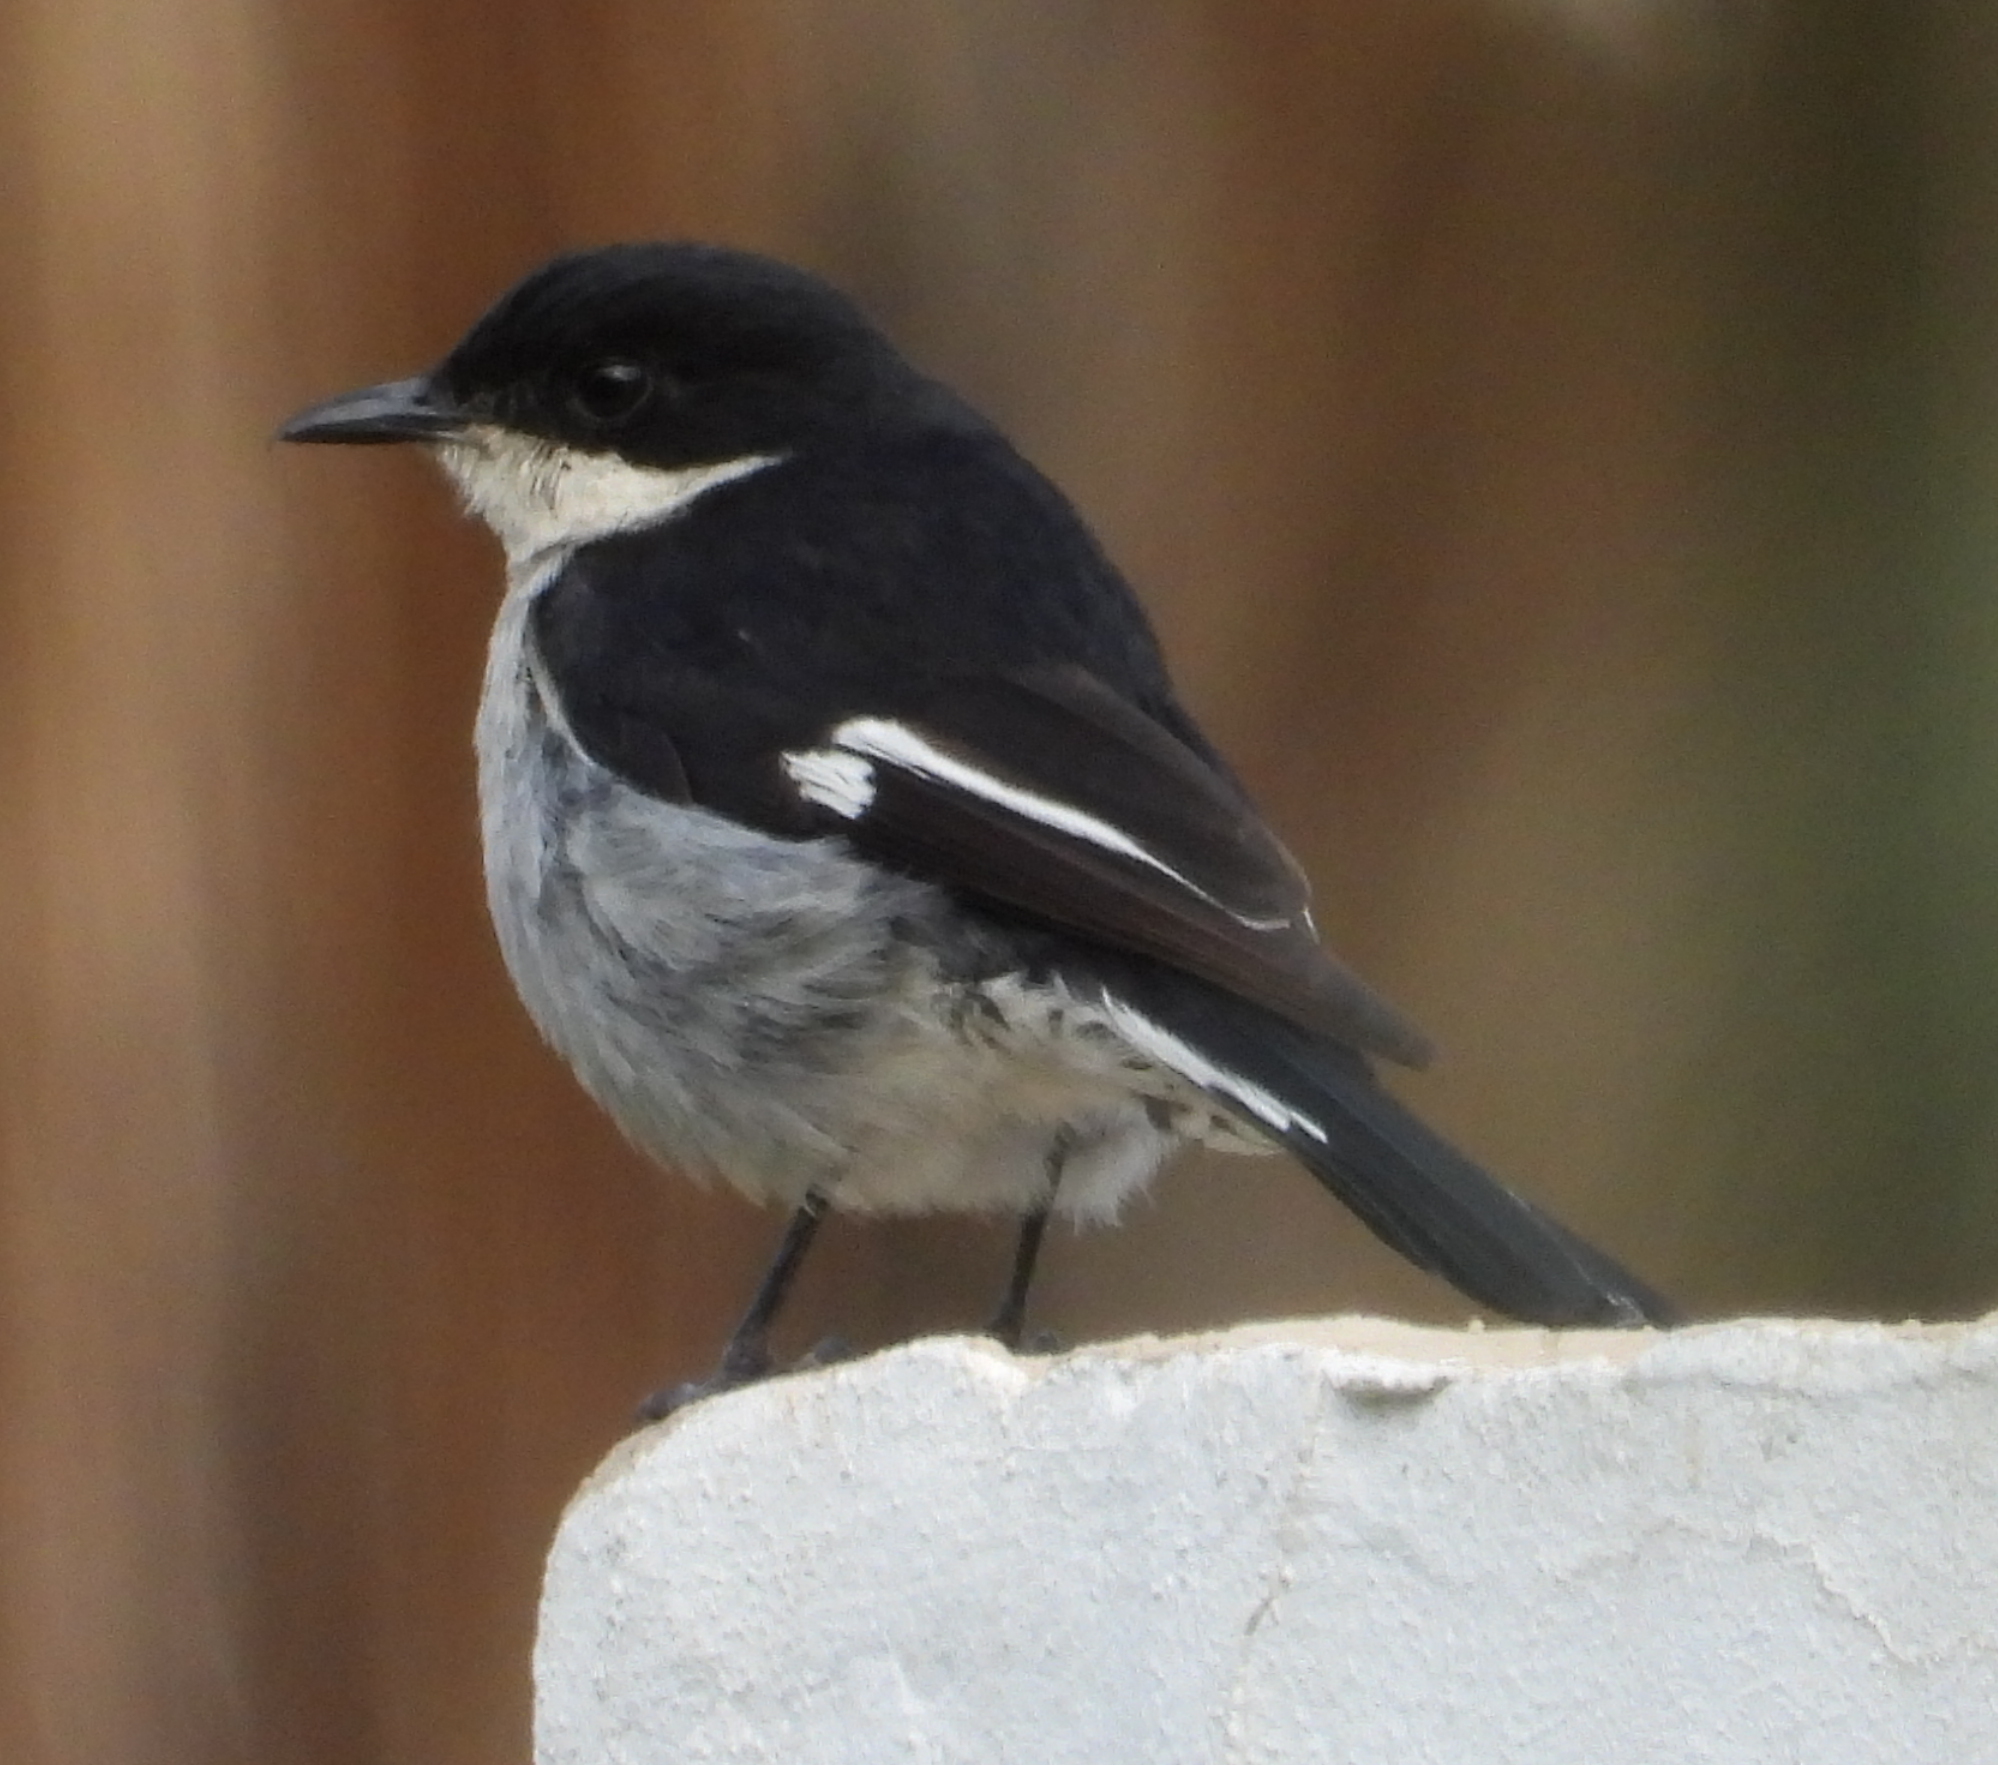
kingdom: Animalia
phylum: Chordata
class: Aves
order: Passeriformes
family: Muscicapidae
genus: Sigelus
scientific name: Sigelus silens
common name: Fiscal flycatcher
